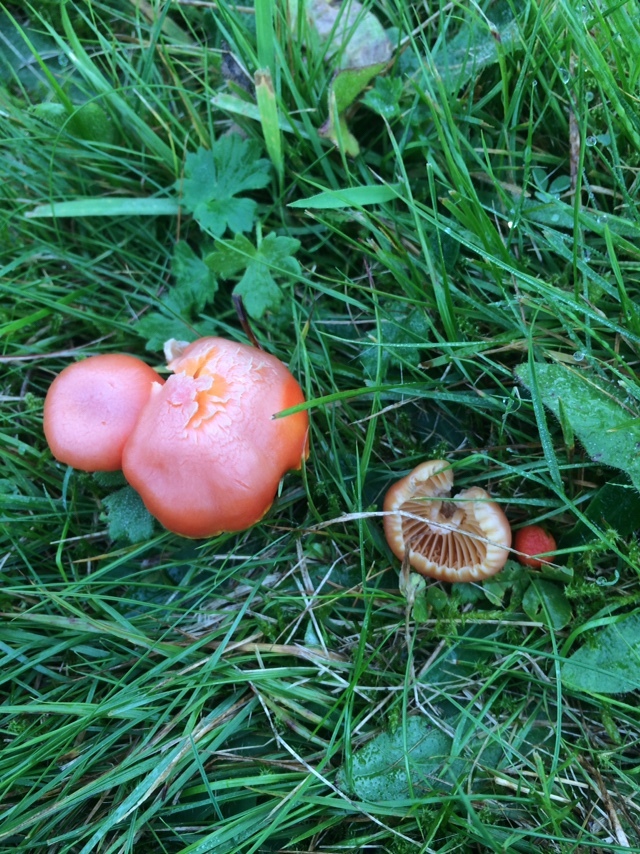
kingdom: Fungi
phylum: Basidiomycota
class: Agaricomycetes
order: Agaricales
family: Hygrophoraceae
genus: Hygrocybe
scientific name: Hygrocybe reidii
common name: Honey waxcap
